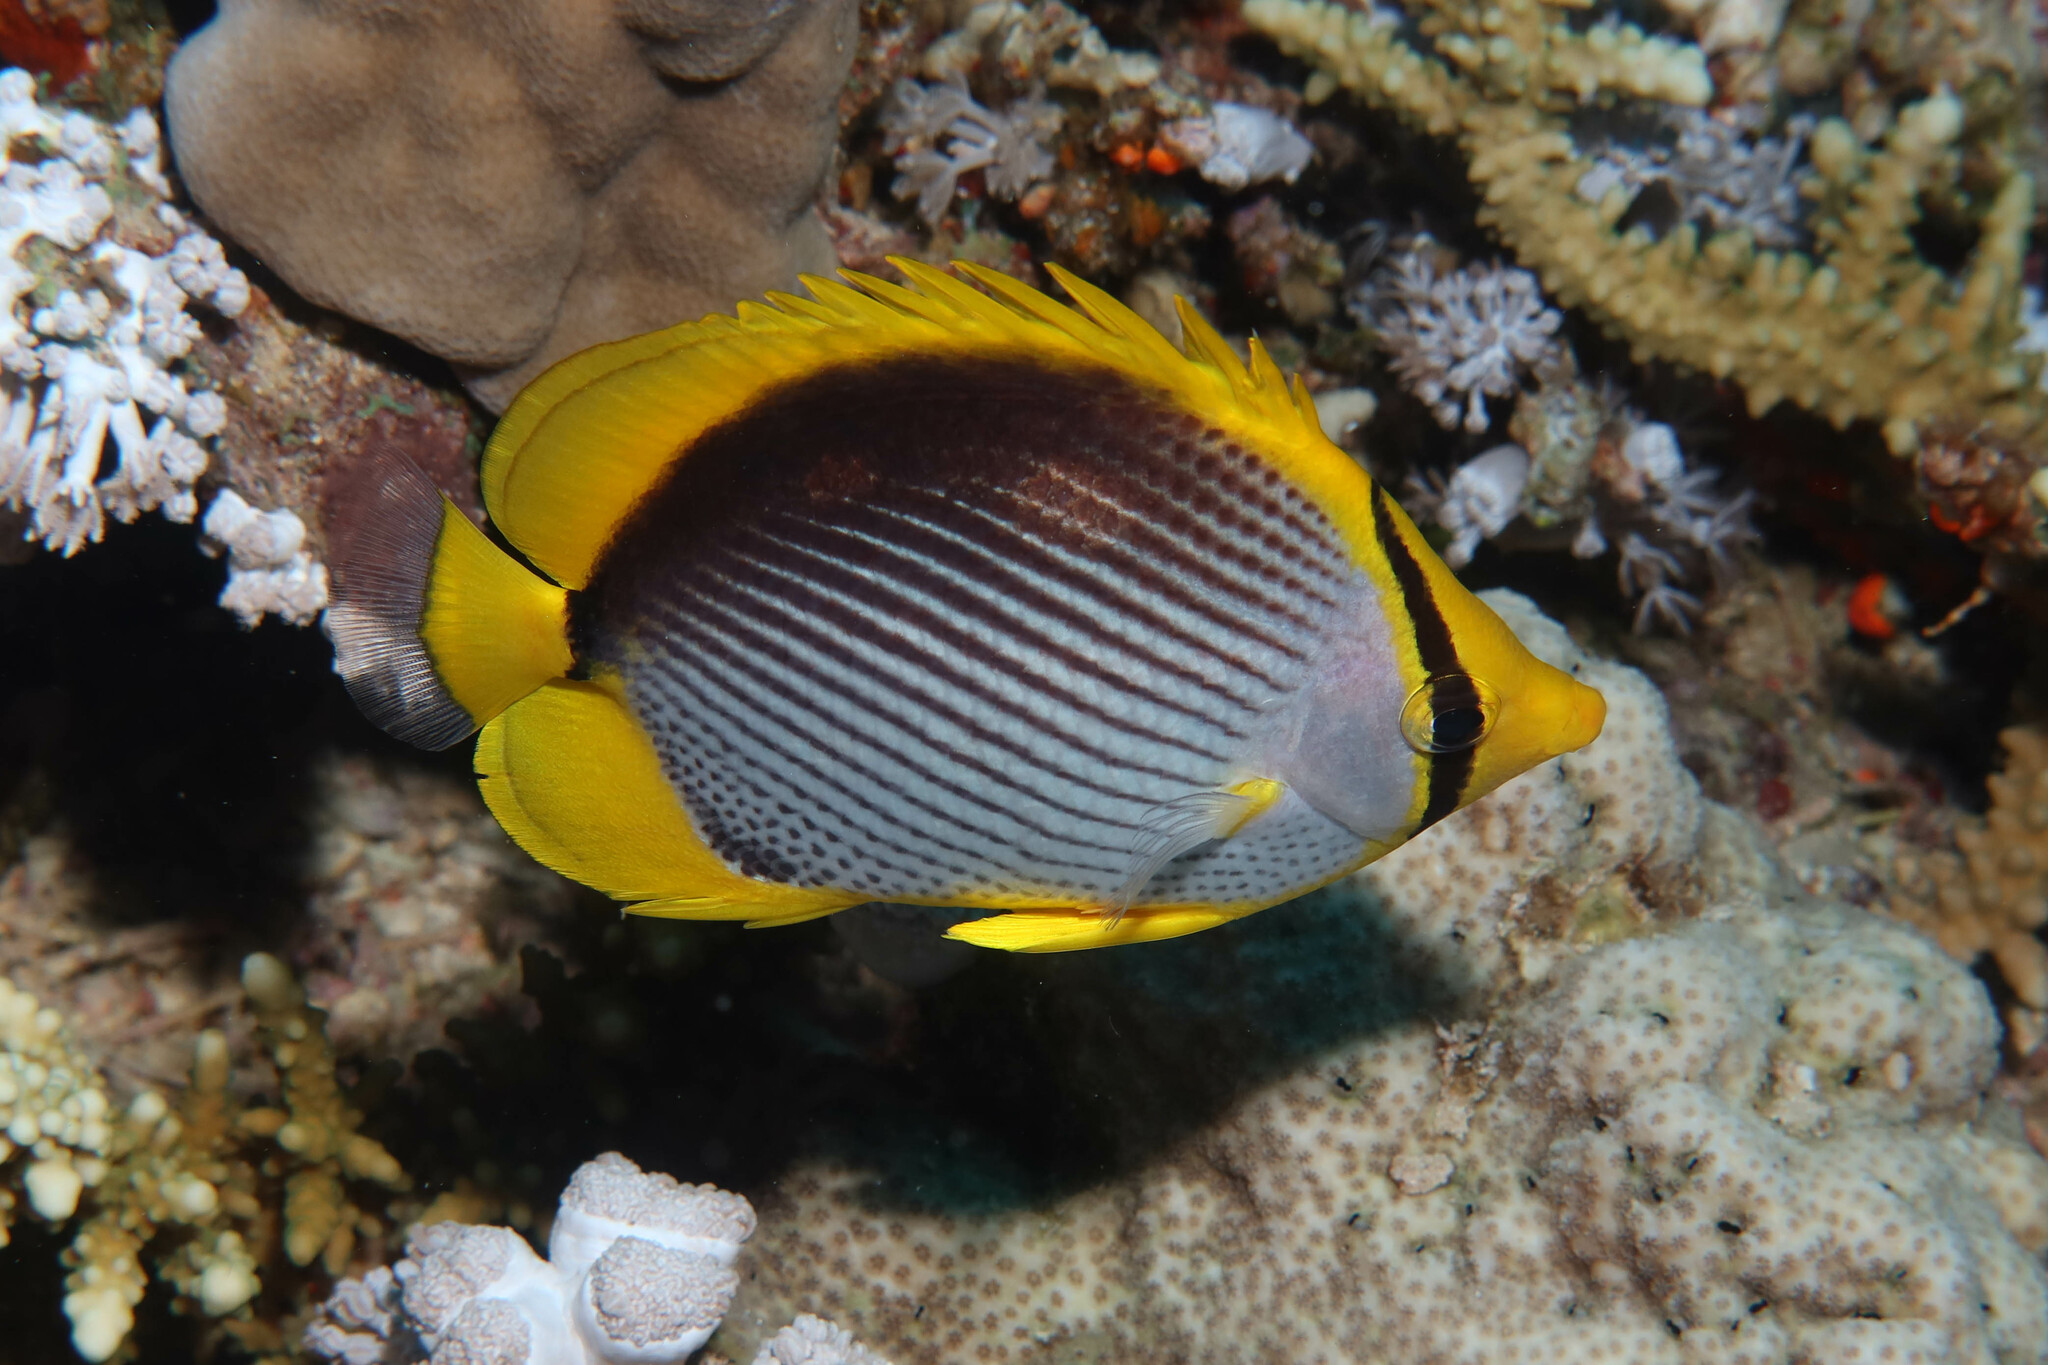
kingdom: Animalia
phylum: Chordata
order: Perciformes
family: Chaetodontidae
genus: Chaetodon
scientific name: Chaetodon melannotus
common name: Blackback butterflyfish
